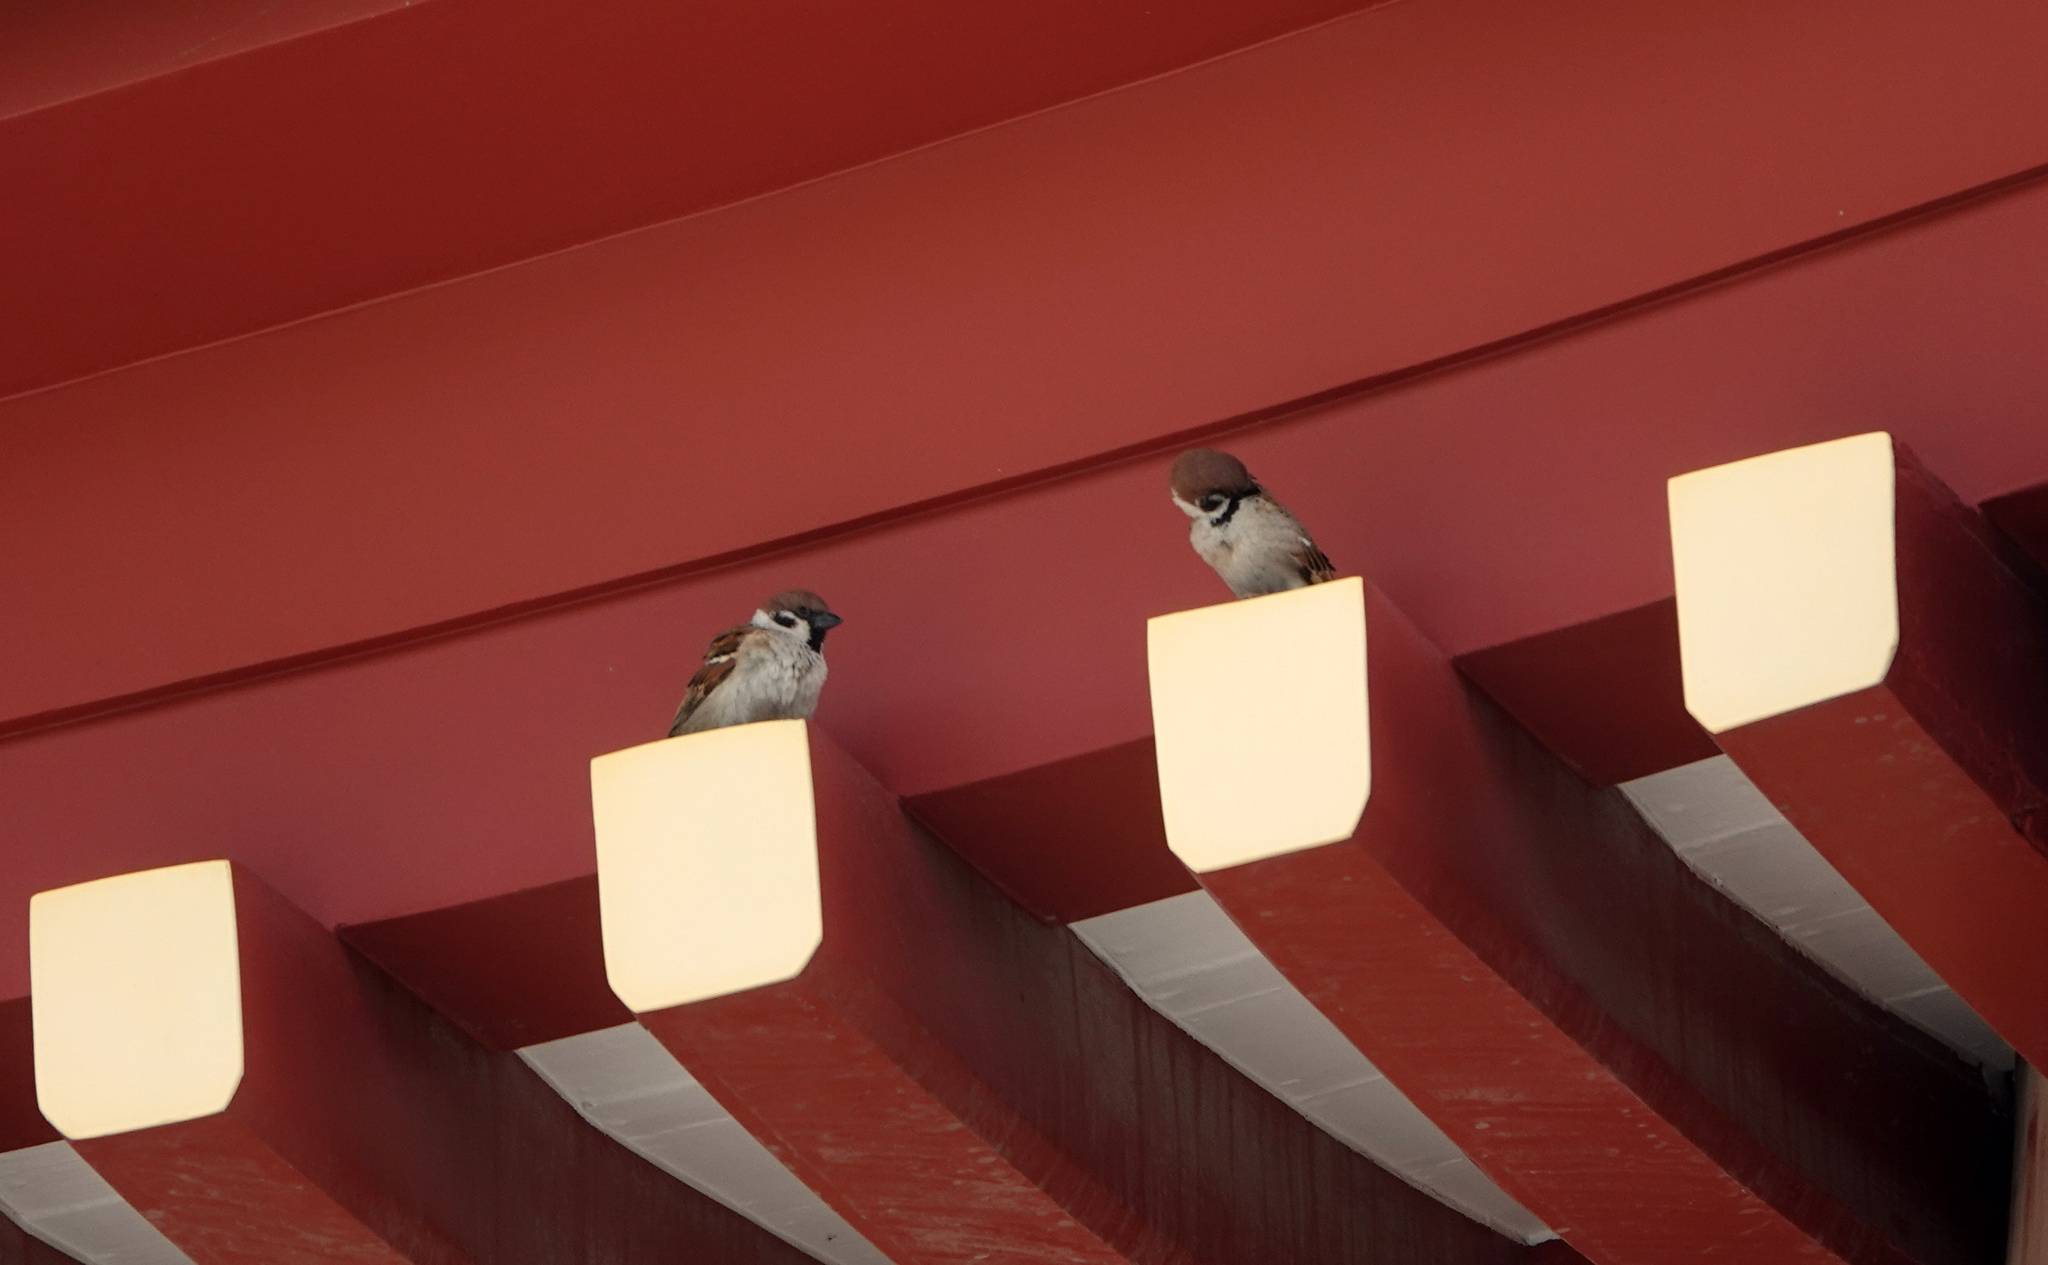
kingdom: Animalia
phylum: Chordata
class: Aves
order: Passeriformes
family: Passeridae
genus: Passer
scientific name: Passer montanus
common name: Eurasian tree sparrow
